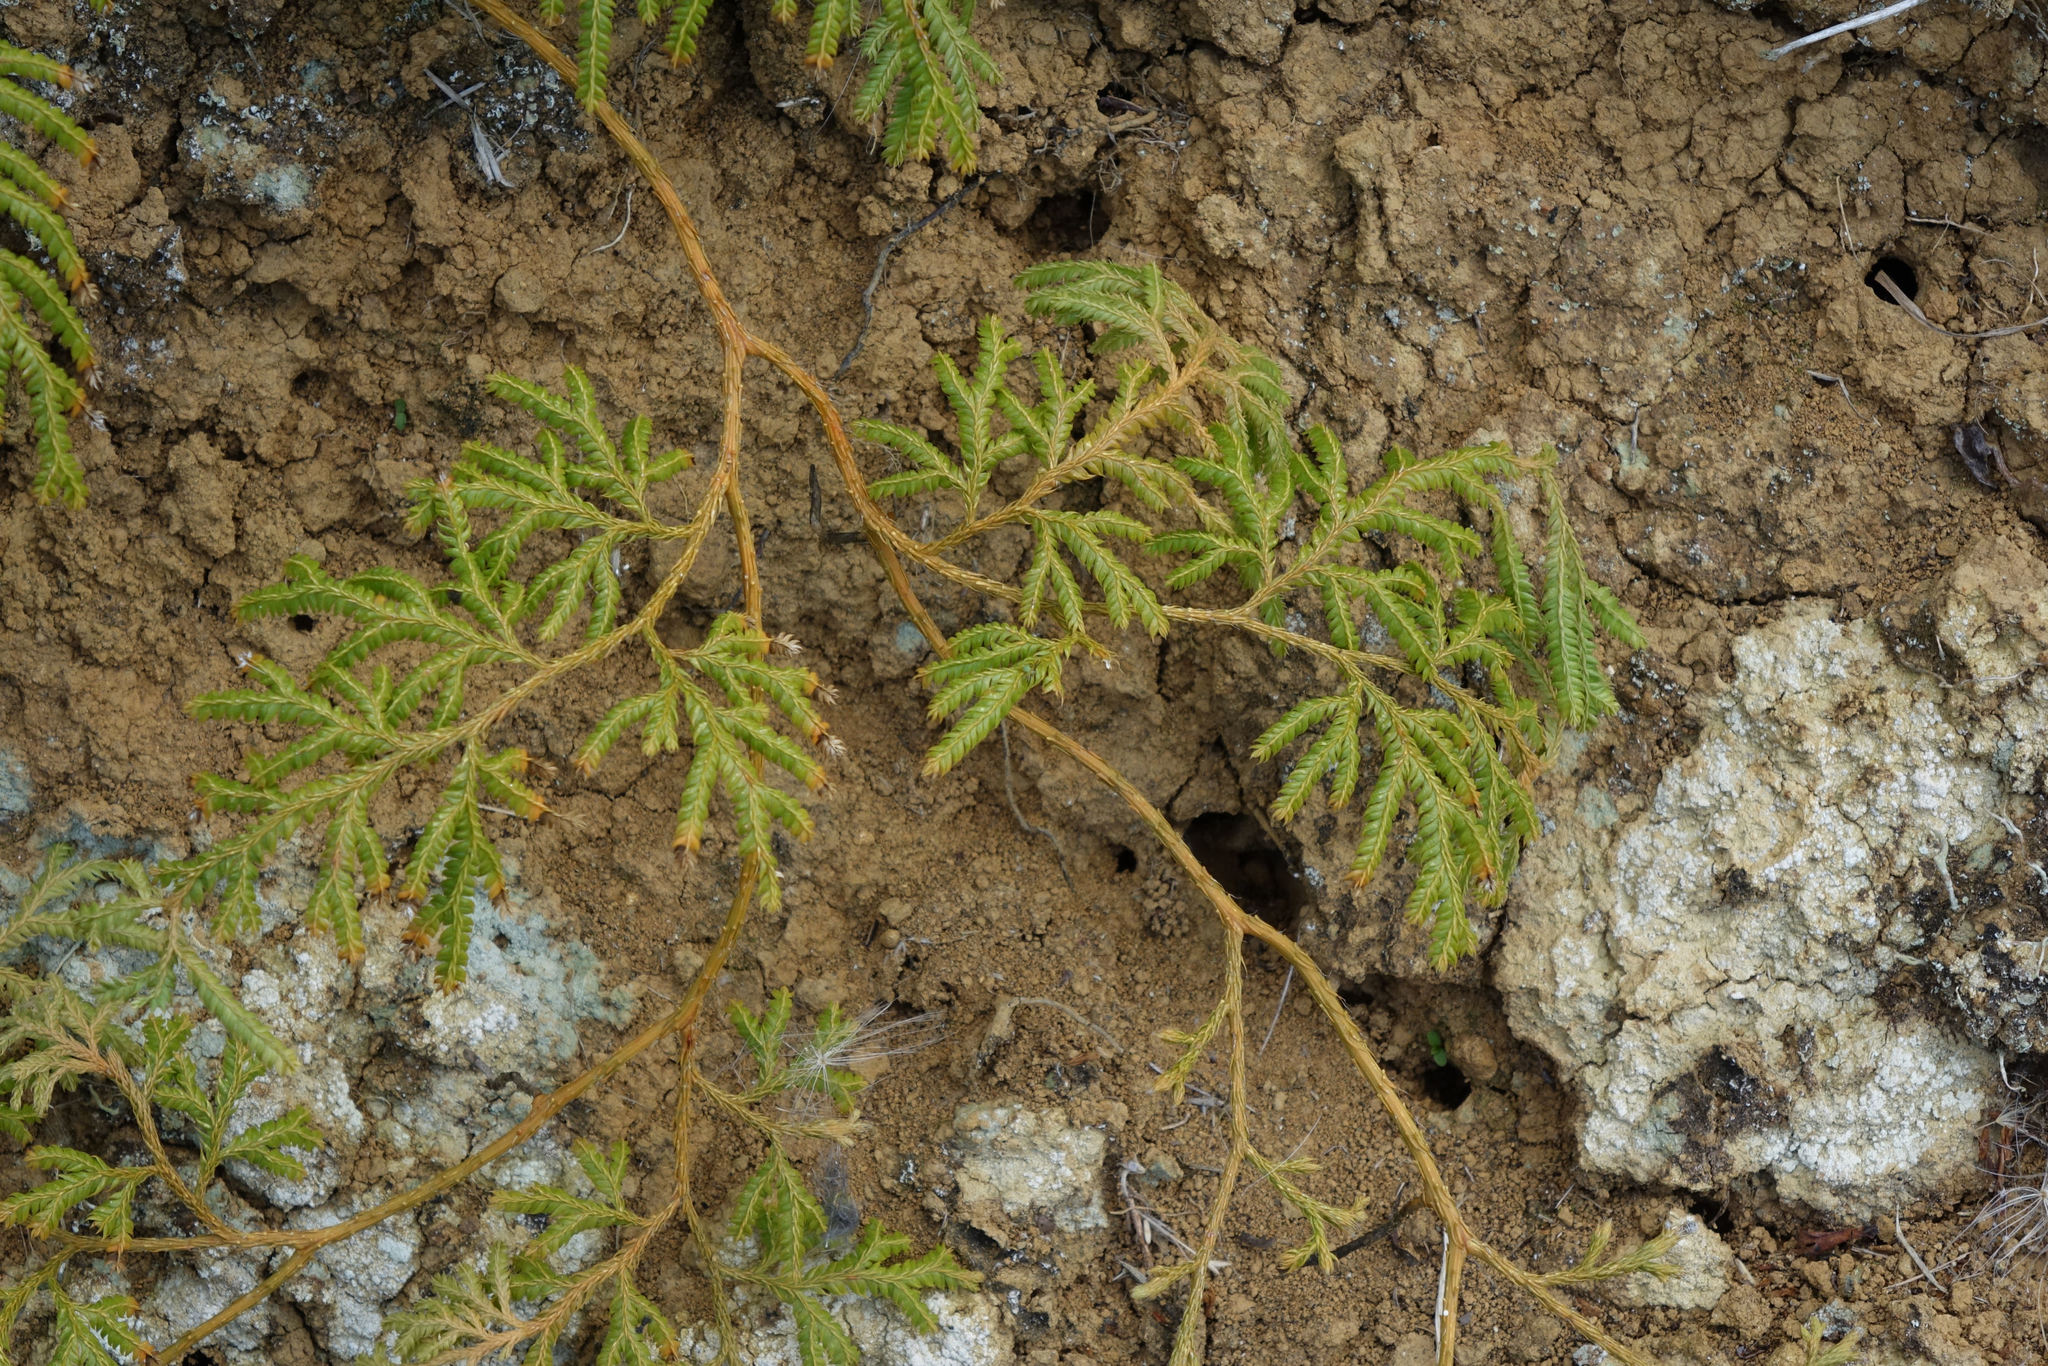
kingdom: Plantae
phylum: Tracheophyta
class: Lycopodiopsida
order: Lycopodiales
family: Lycopodiaceae
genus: Lycopodium
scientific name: Lycopodium volubile
